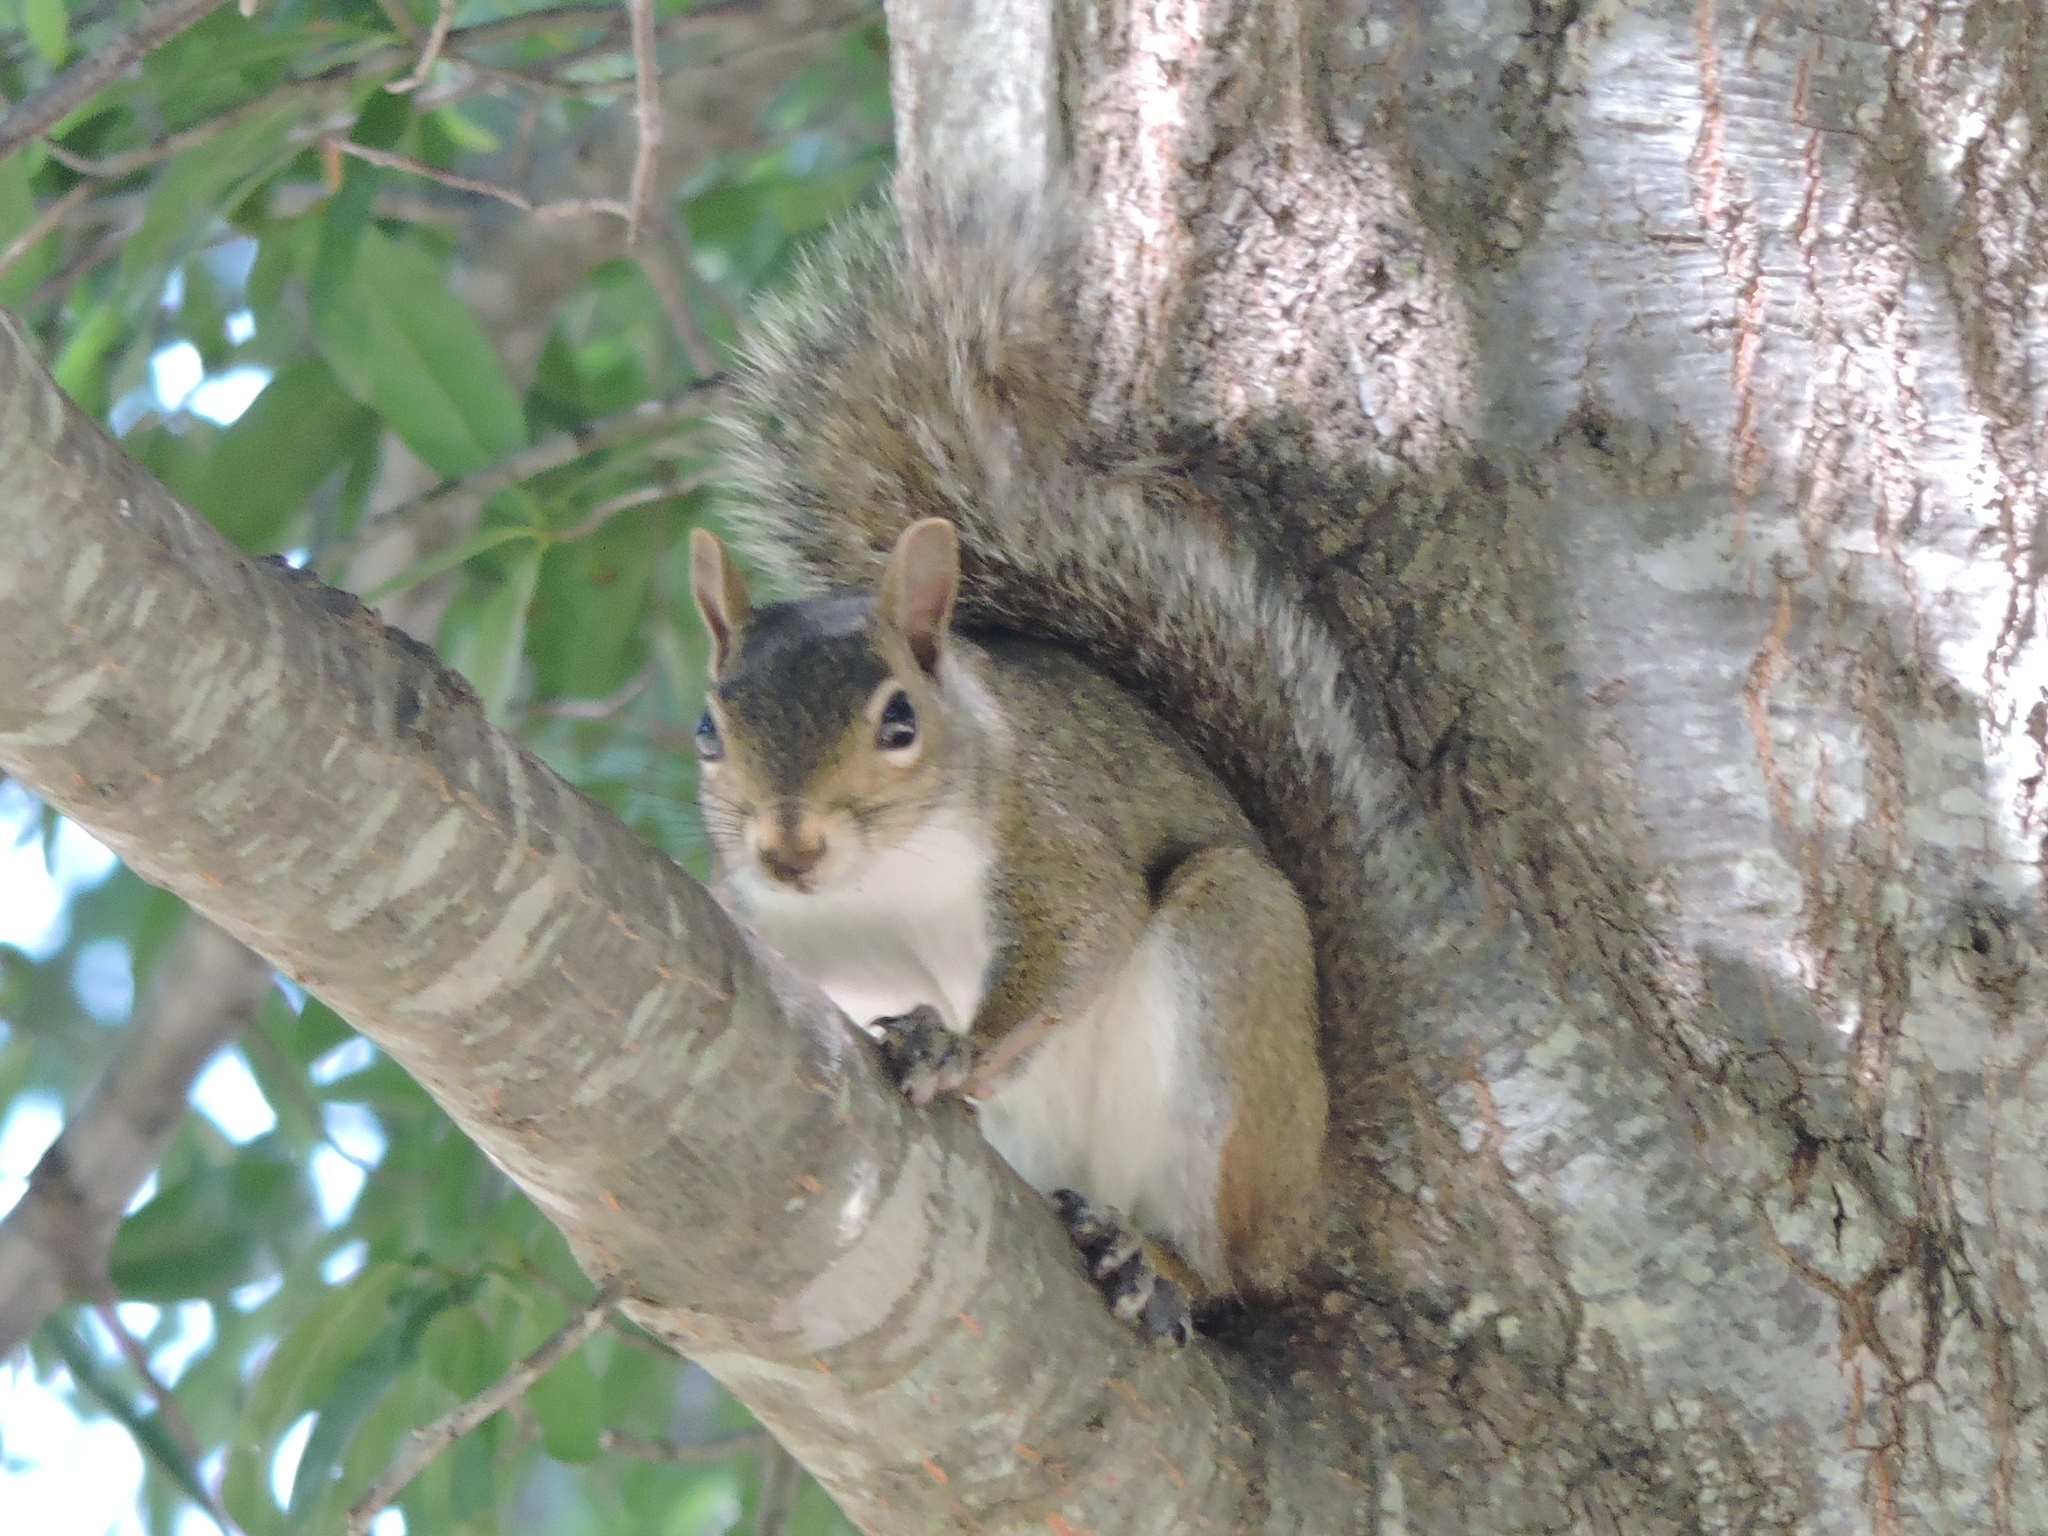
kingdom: Animalia
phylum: Chordata
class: Mammalia
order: Rodentia
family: Sciuridae
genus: Sciurus
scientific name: Sciurus carolinensis
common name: Eastern gray squirrel
